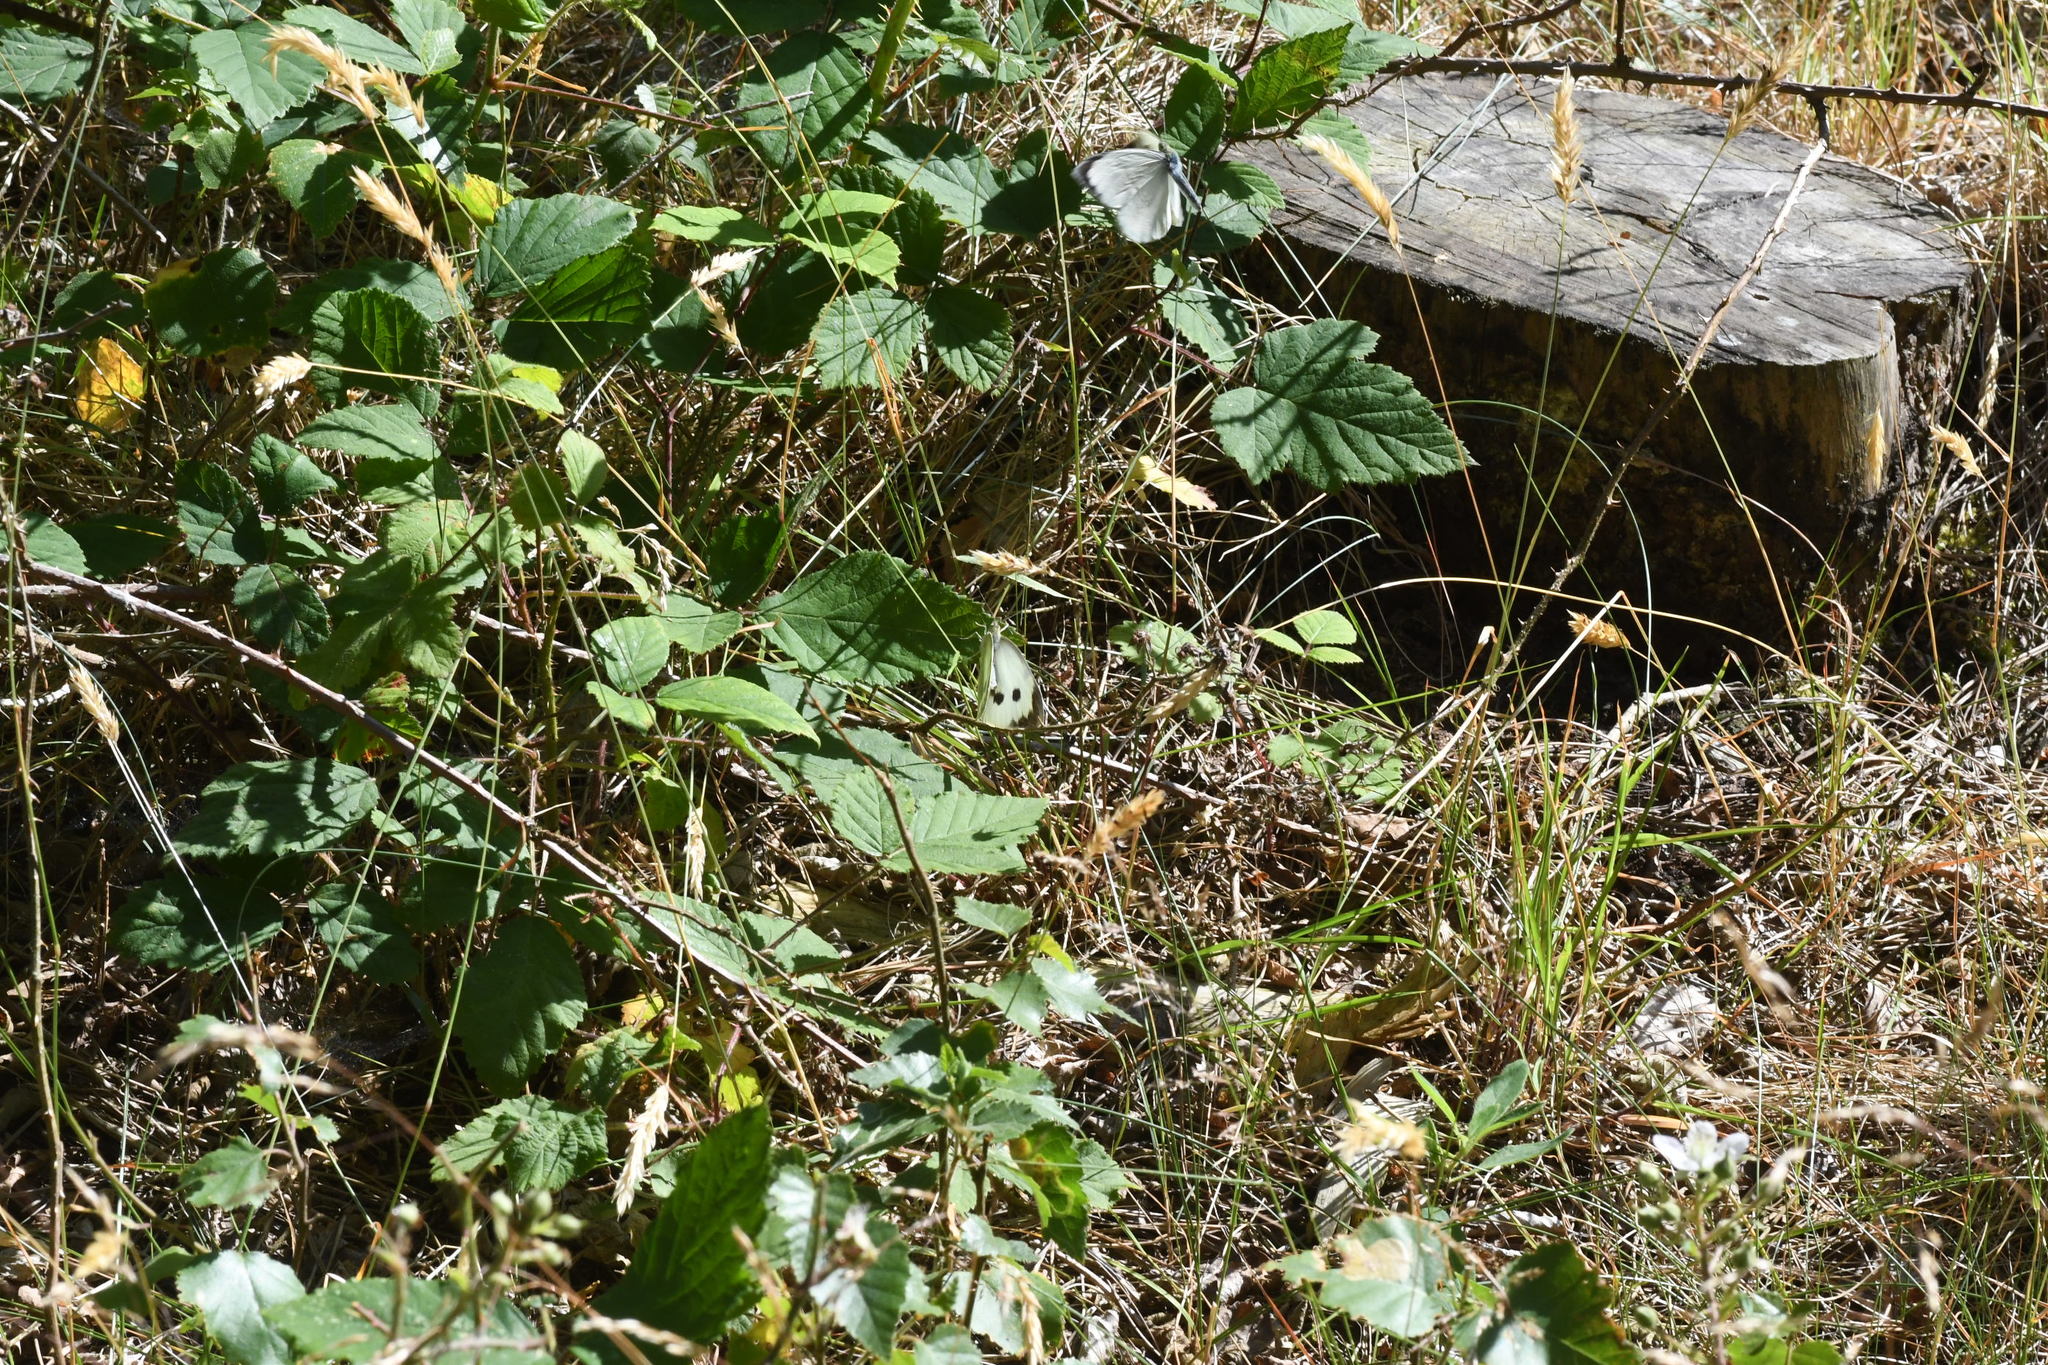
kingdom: Animalia
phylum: Arthropoda
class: Insecta
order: Lepidoptera
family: Pieridae
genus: Pieris
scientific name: Pieris brassicae
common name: Large white
